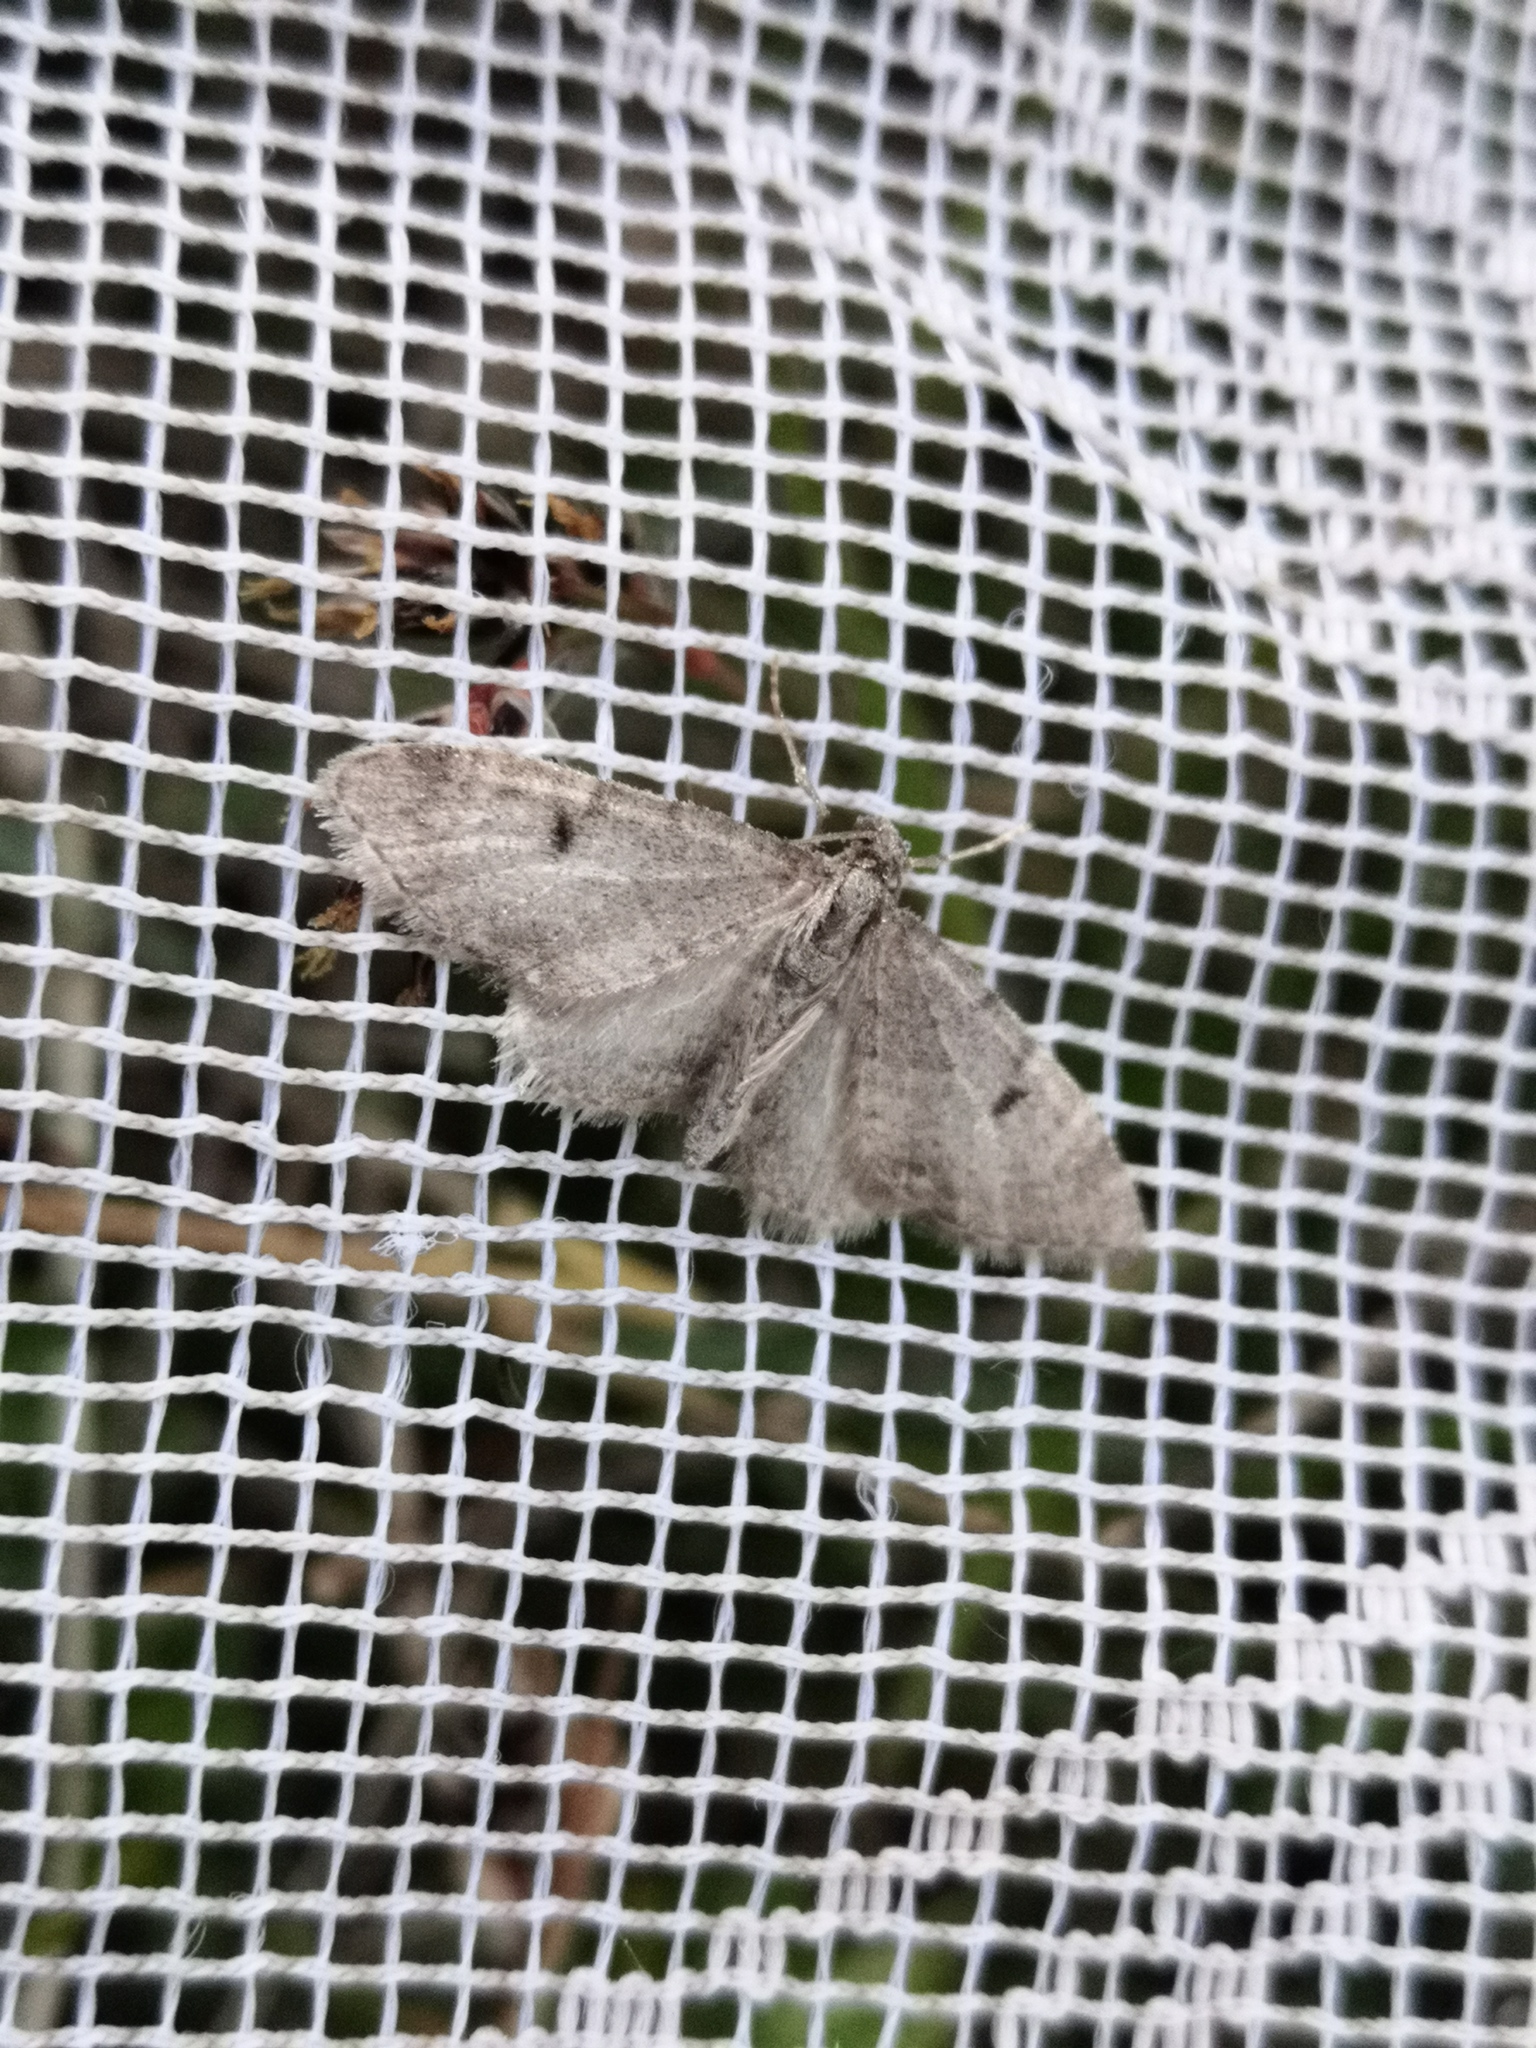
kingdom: Animalia
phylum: Arthropoda
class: Insecta
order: Lepidoptera
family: Geometridae
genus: Eupithecia
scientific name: Eupithecia indigata
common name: Ochreous pug
